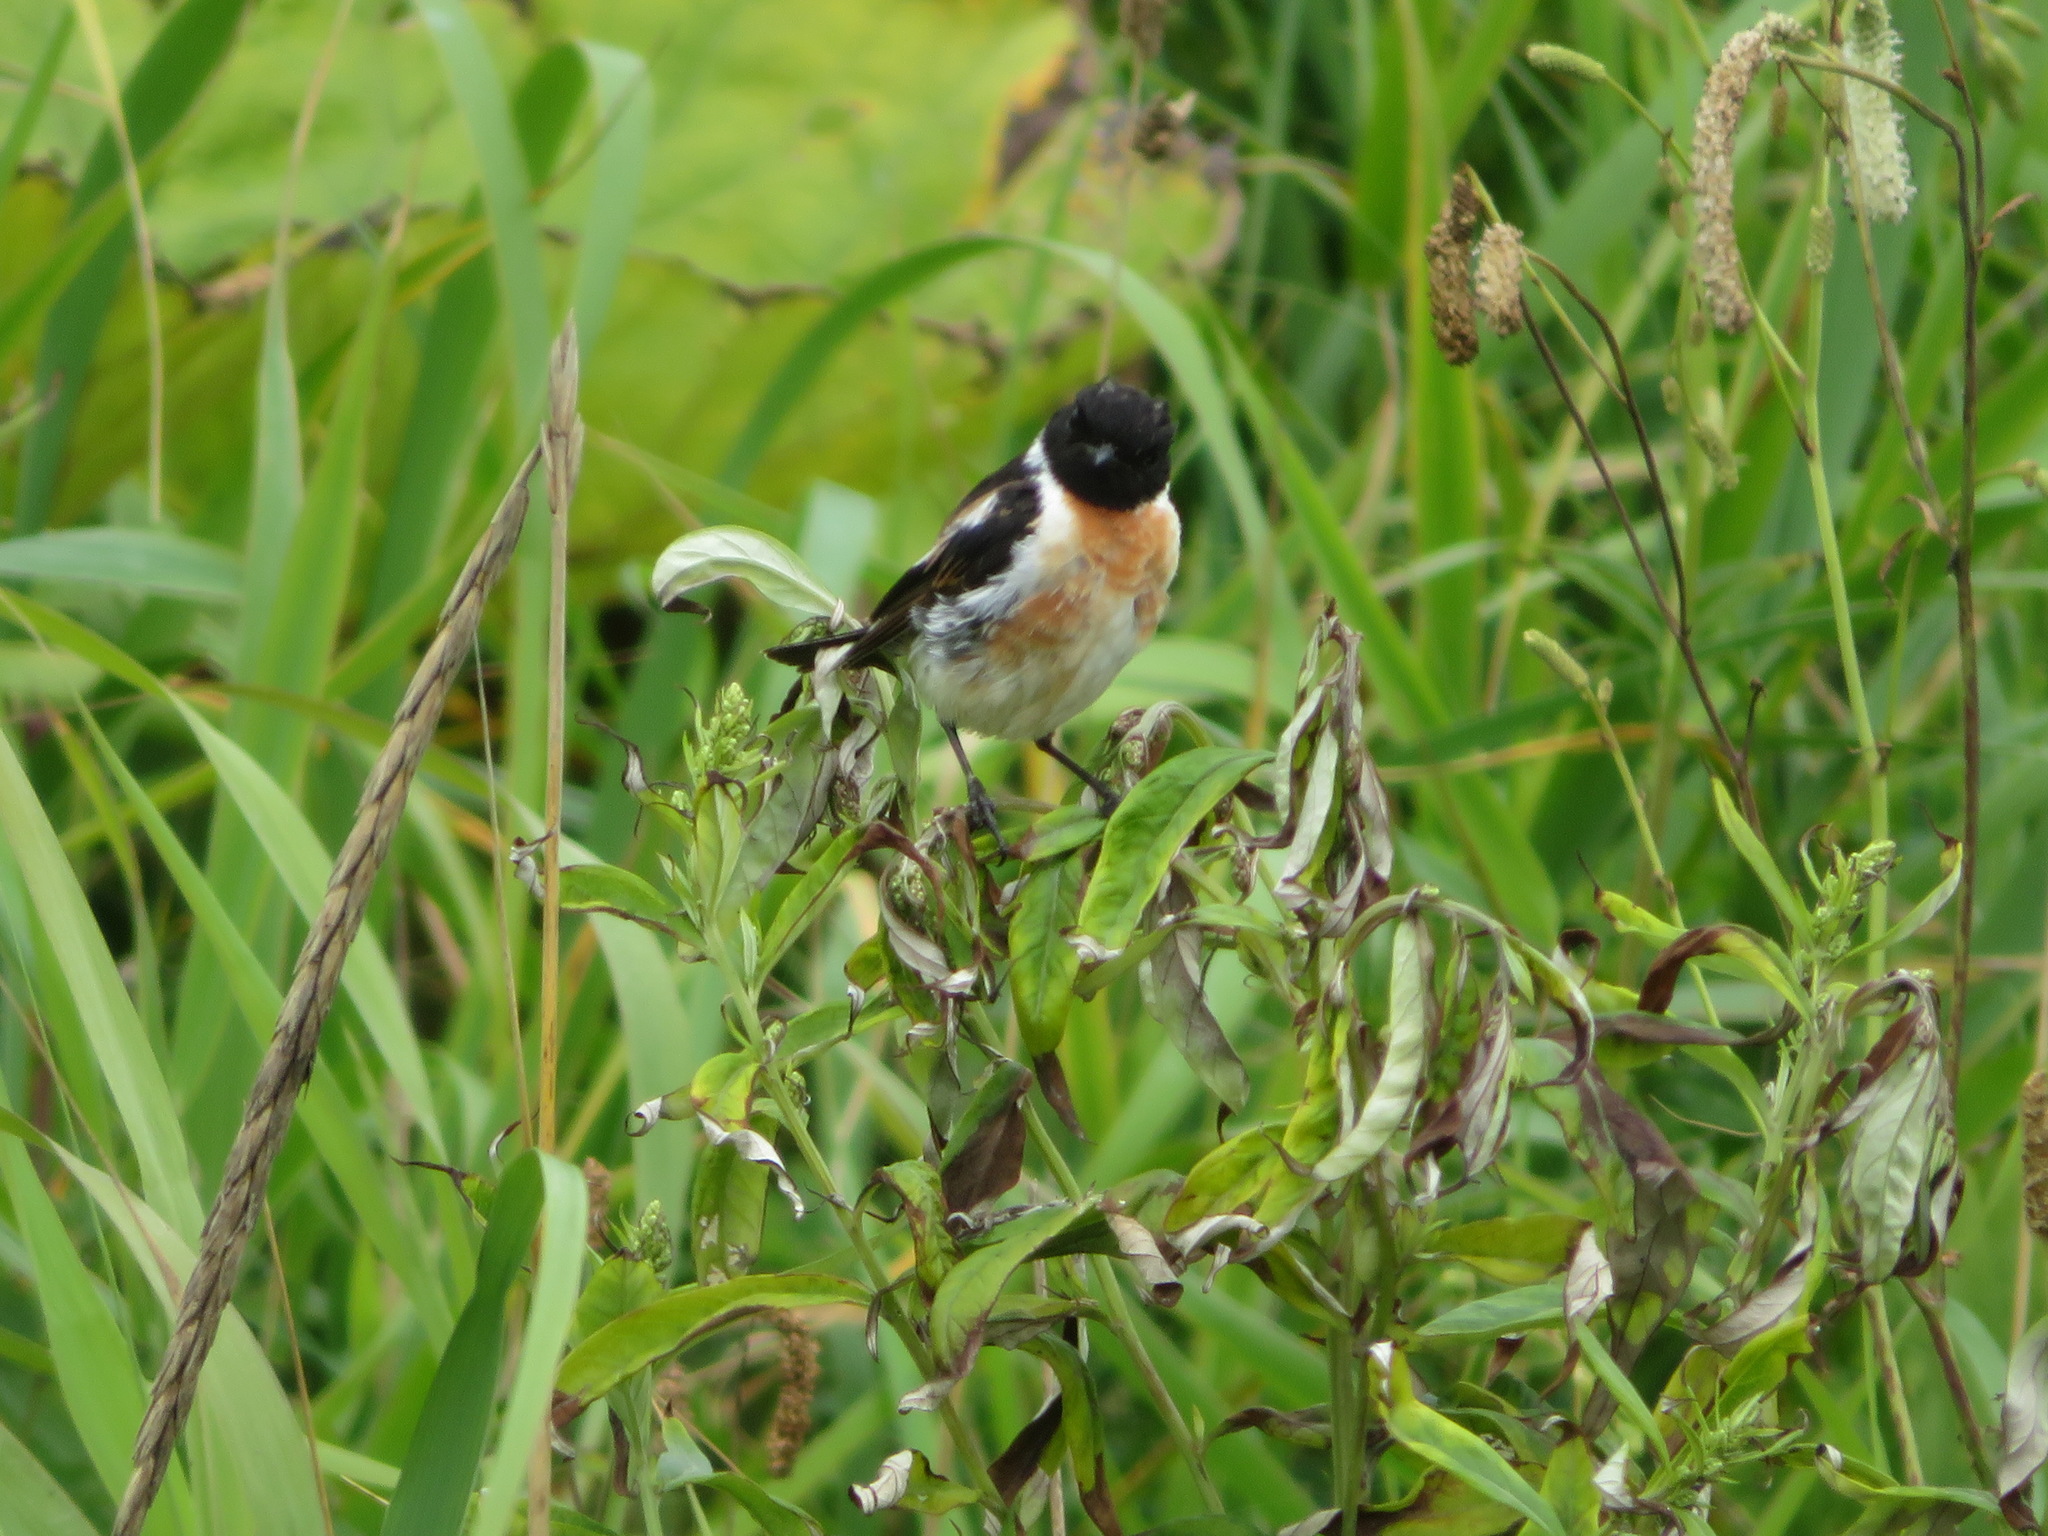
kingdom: Animalia
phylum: Chordata
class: Aves
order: Passeriformes
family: Muscicapidae
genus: Saxicola
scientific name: Saxicola stejnegeri
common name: Stejneger's stonechat
